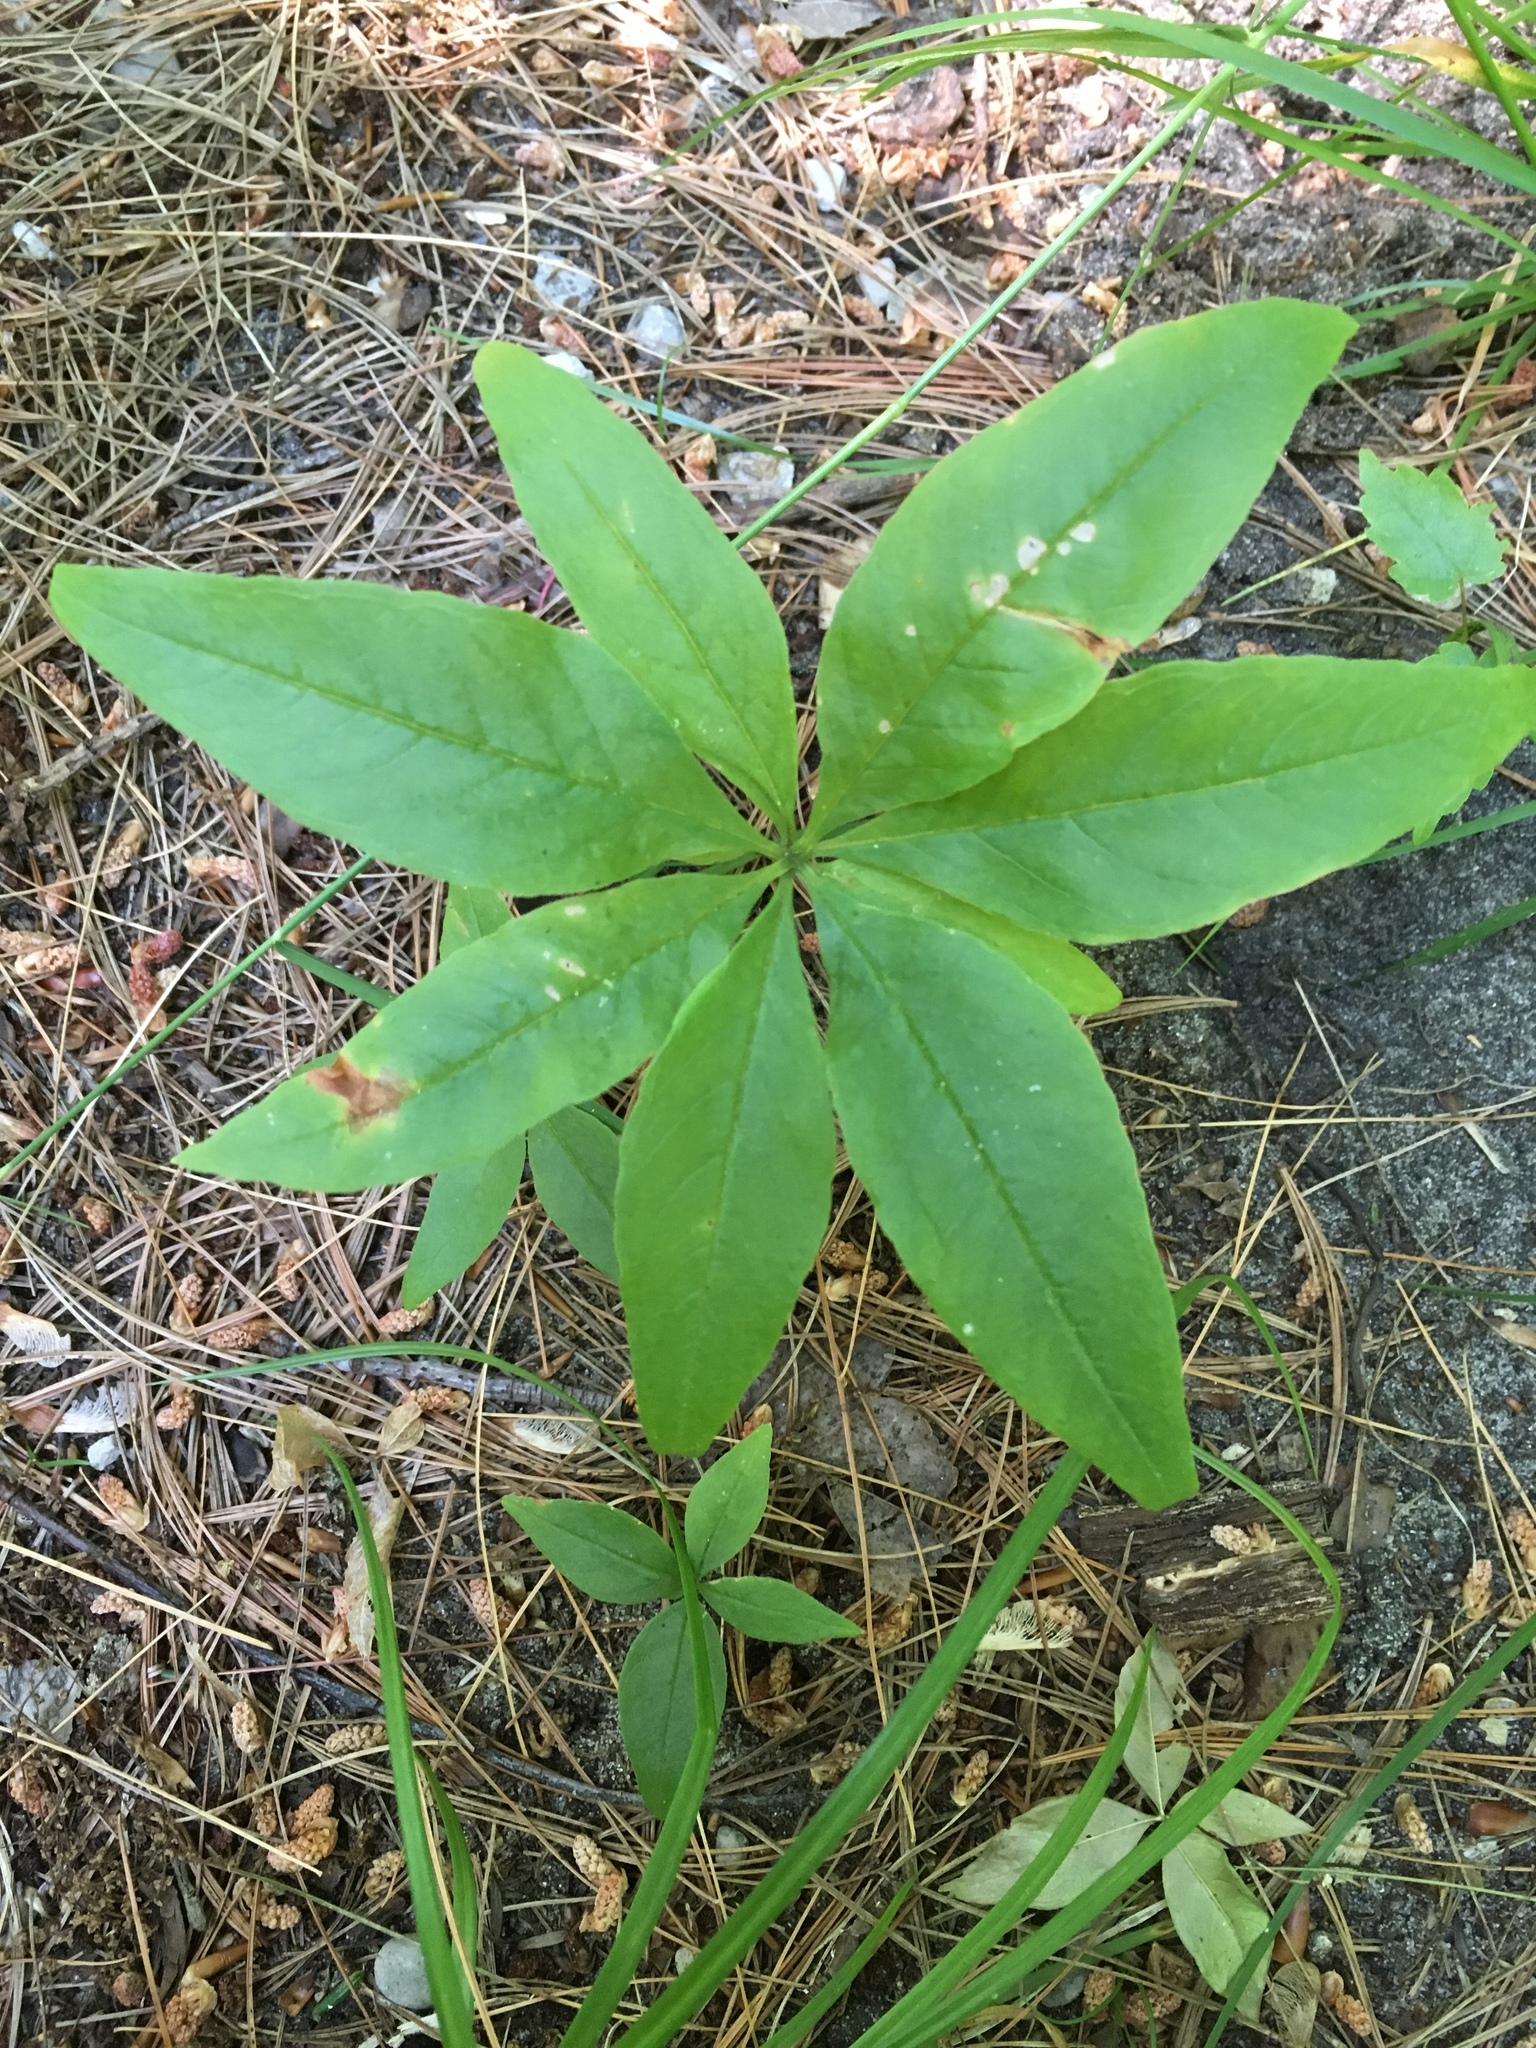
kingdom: Plantae
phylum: Tracheophyta
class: Magnoliopsida
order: Ericales
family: Primulaceae
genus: Lysimachia
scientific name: Lysimachia borealis
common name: American starflower
